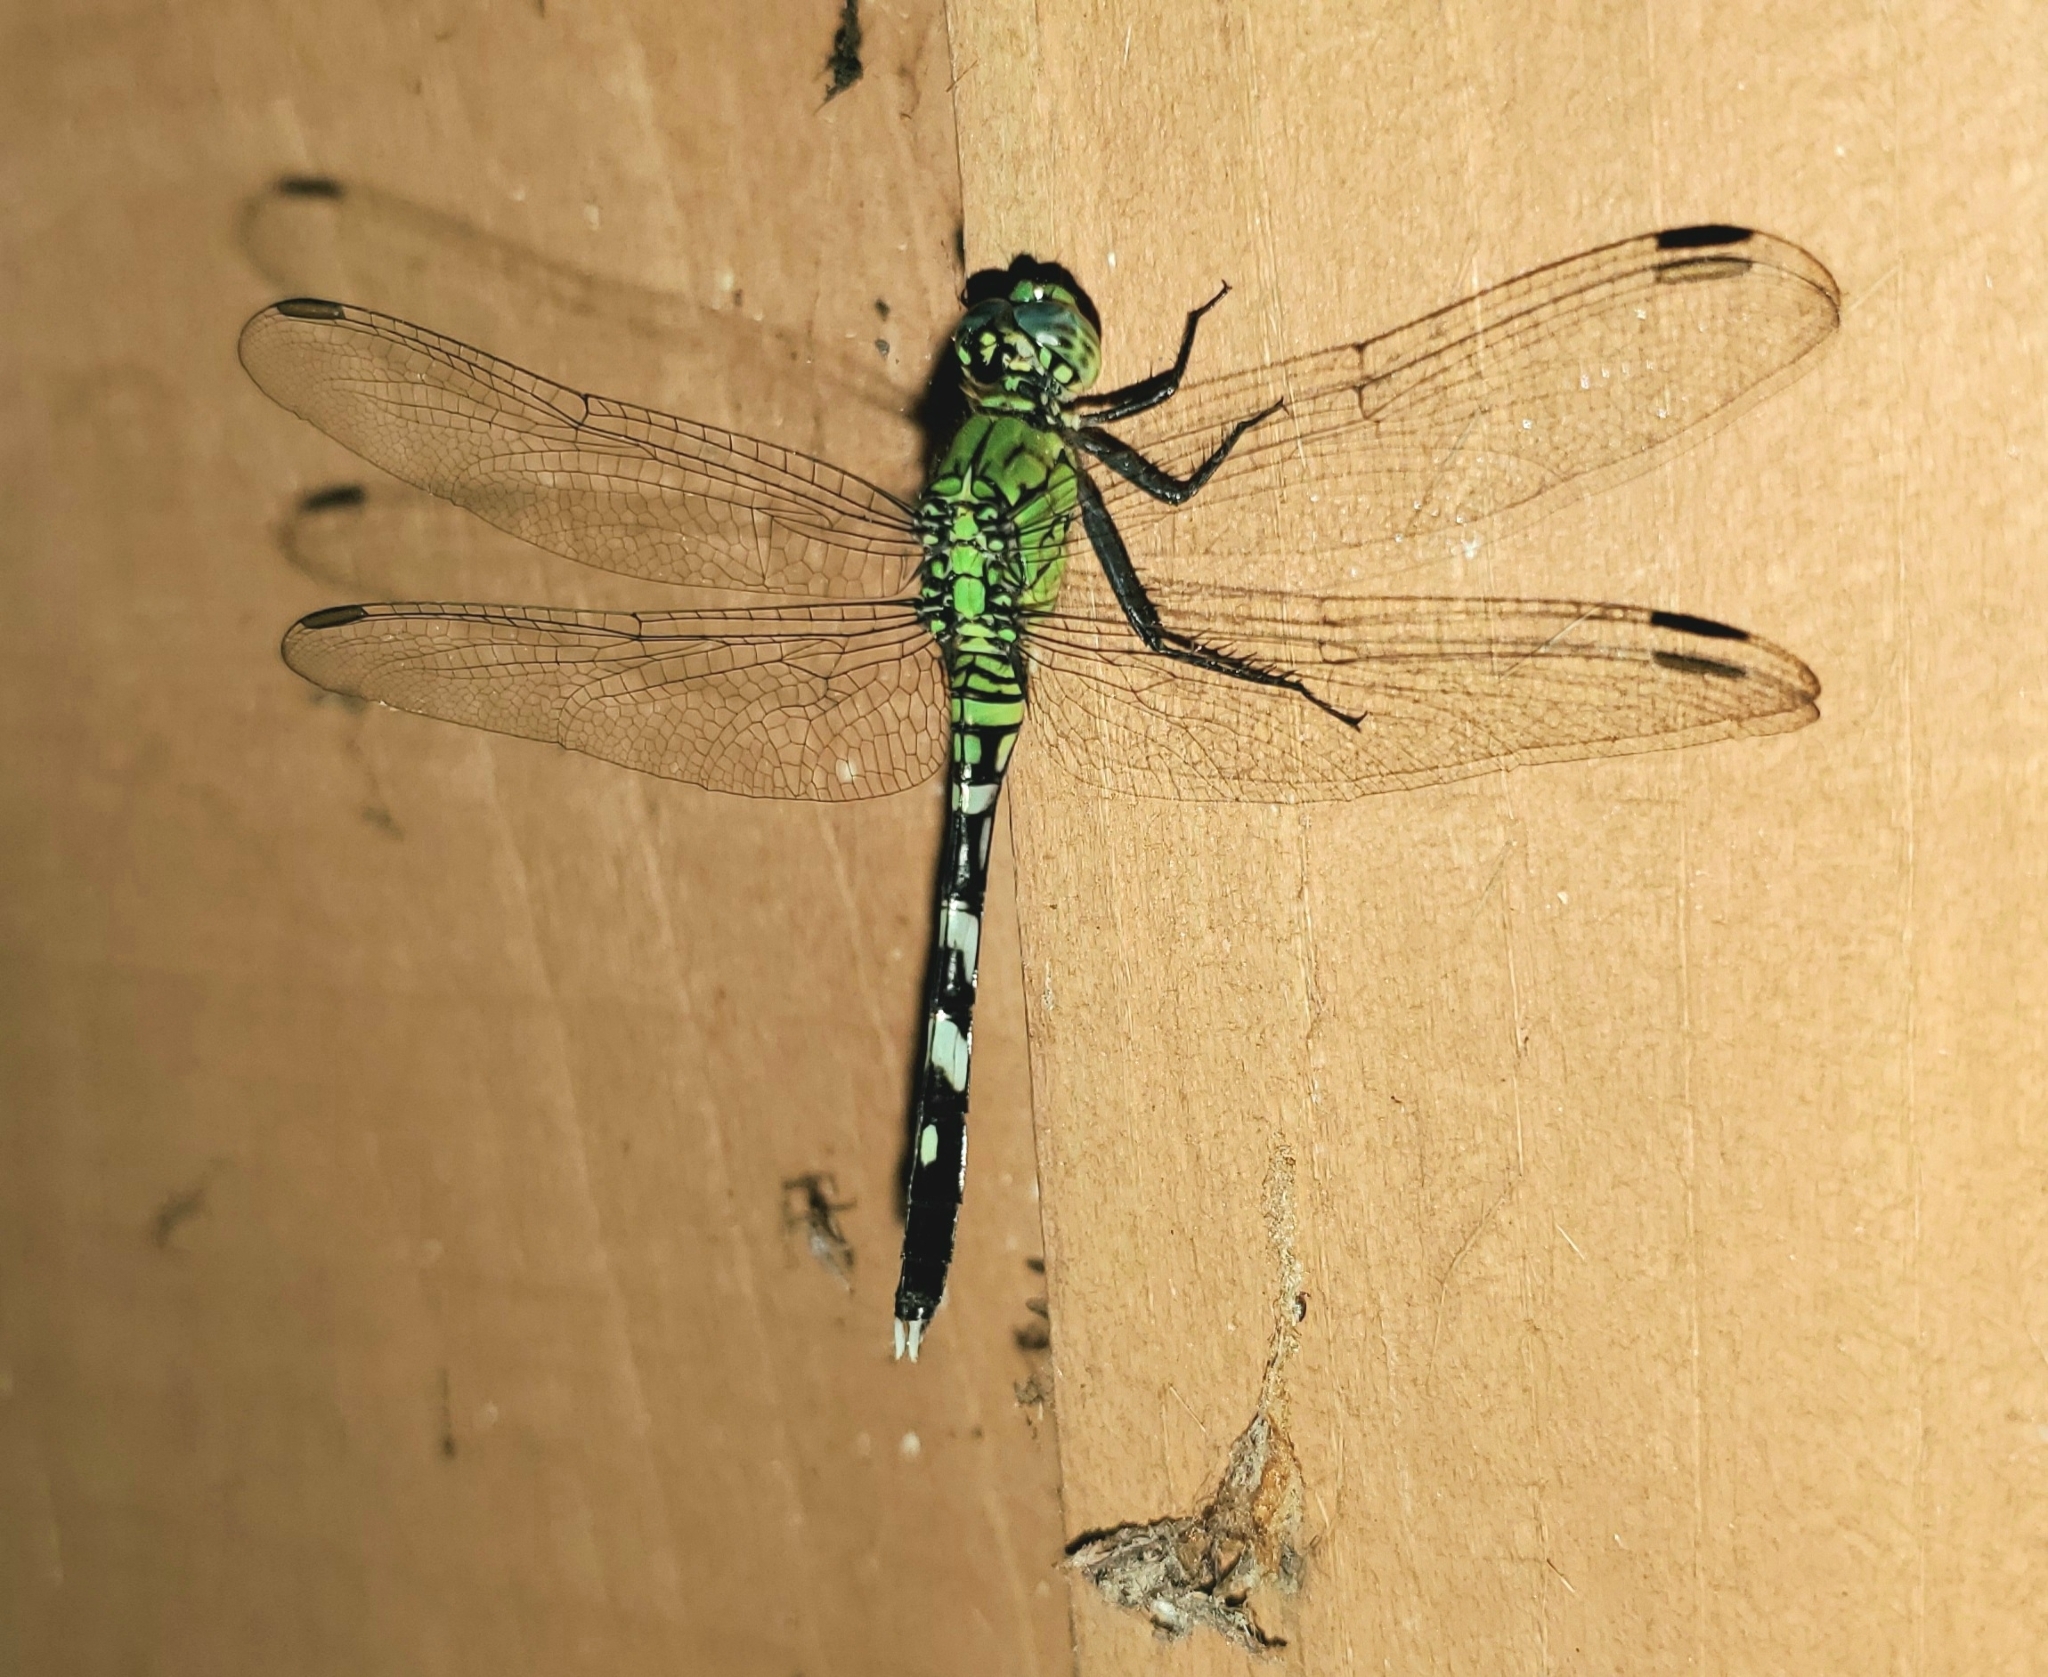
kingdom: Animalia
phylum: Arthropoda
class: Insecta
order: Odonata
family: Libellulidae
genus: Erythemis
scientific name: Erythemis simplicicollis
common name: Eastern pondhawk
